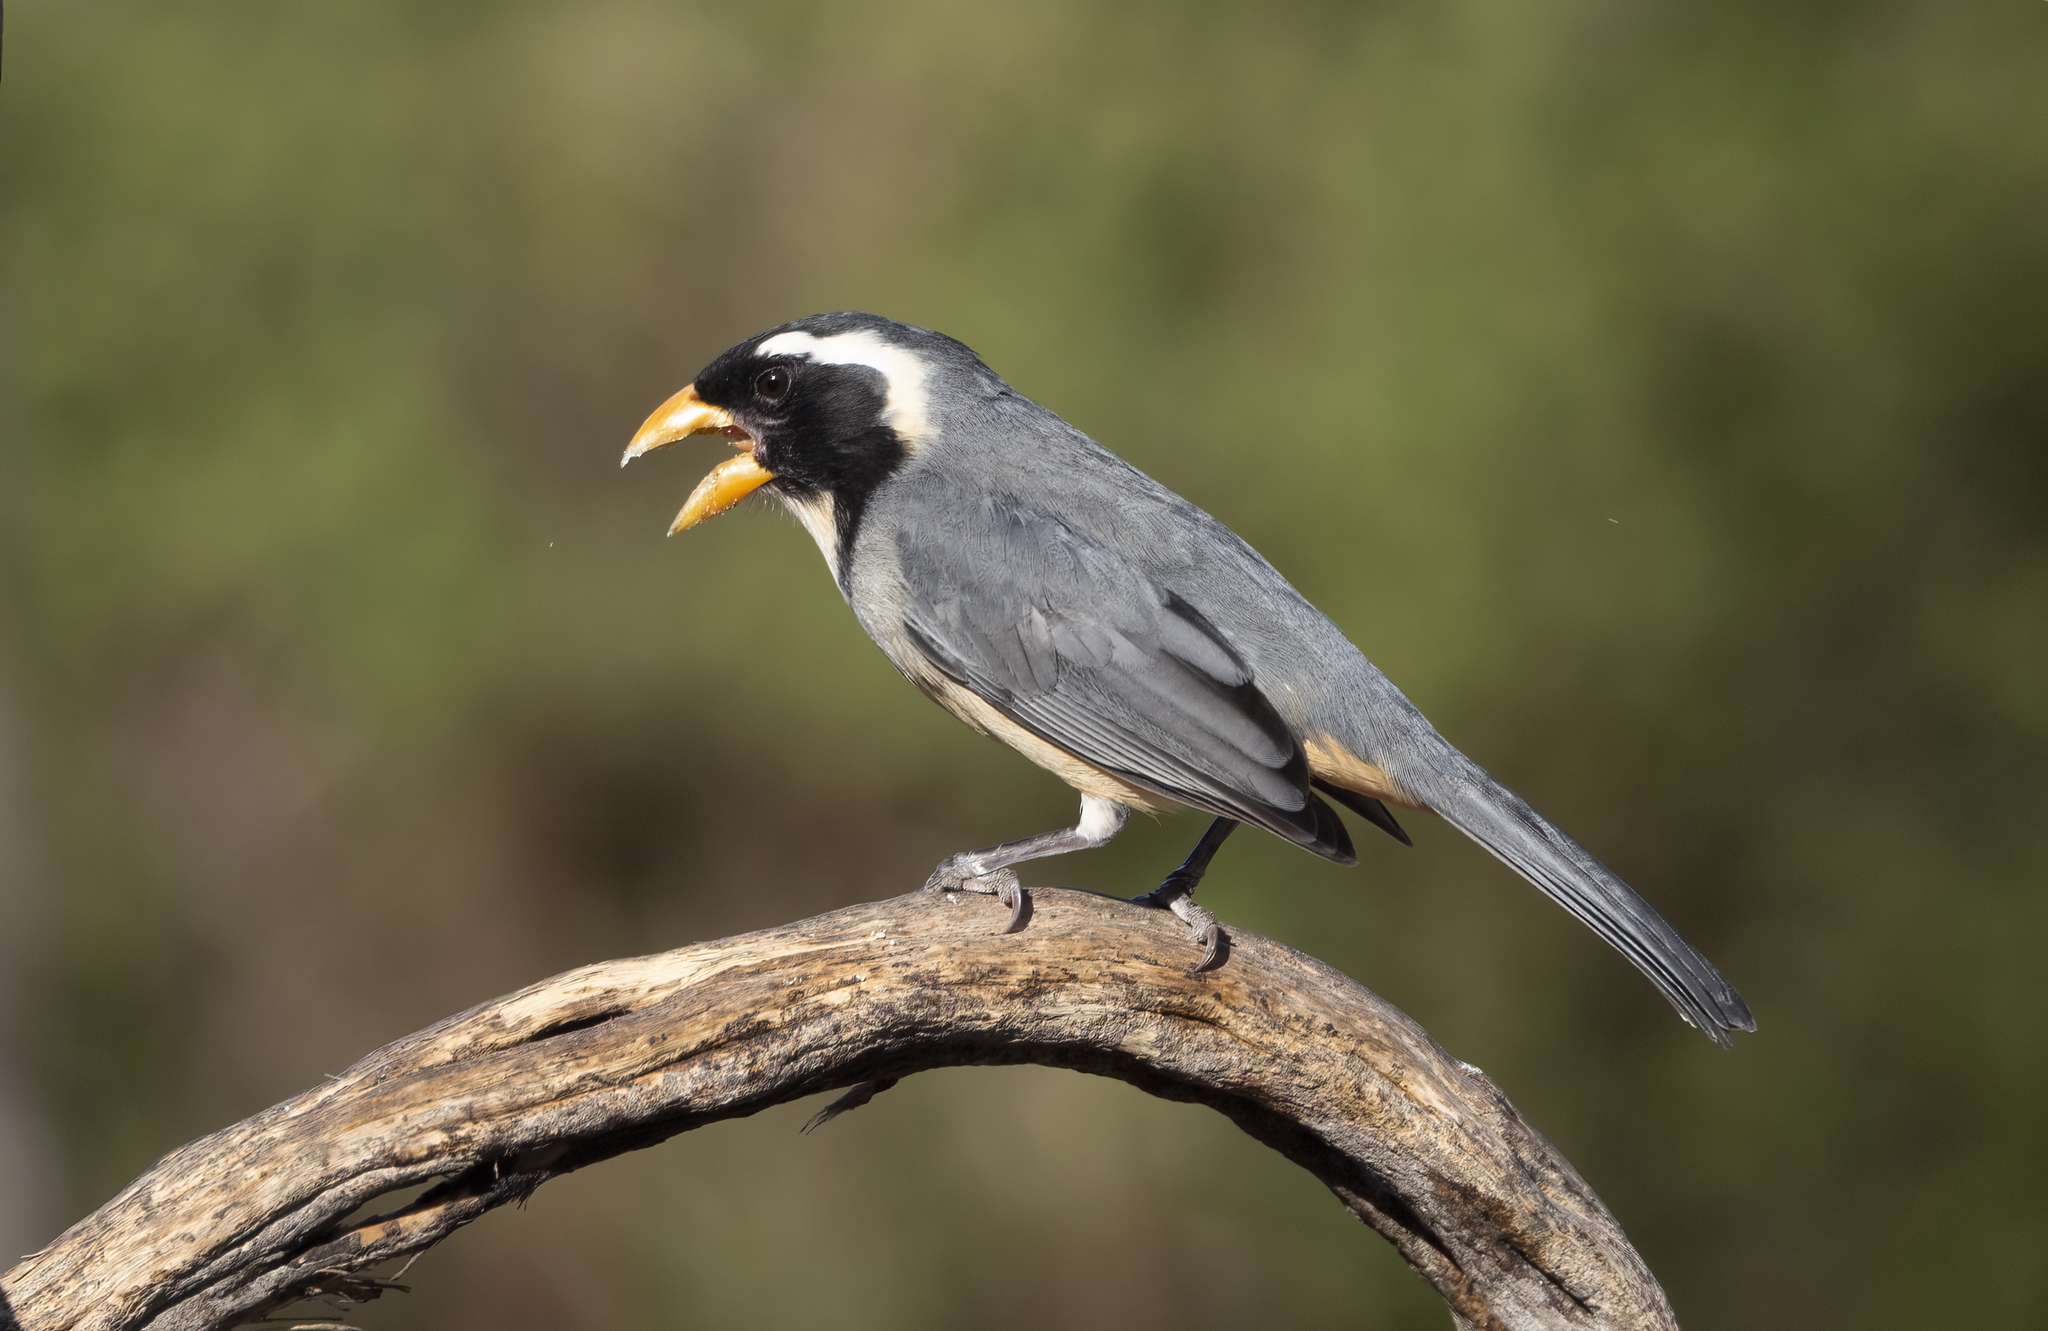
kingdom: Animalia
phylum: Chordata
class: Aves
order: Passeriformes
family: Thraupidae
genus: Saltator
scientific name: Saltator aurantiirostris
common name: Golden-billed saltator
